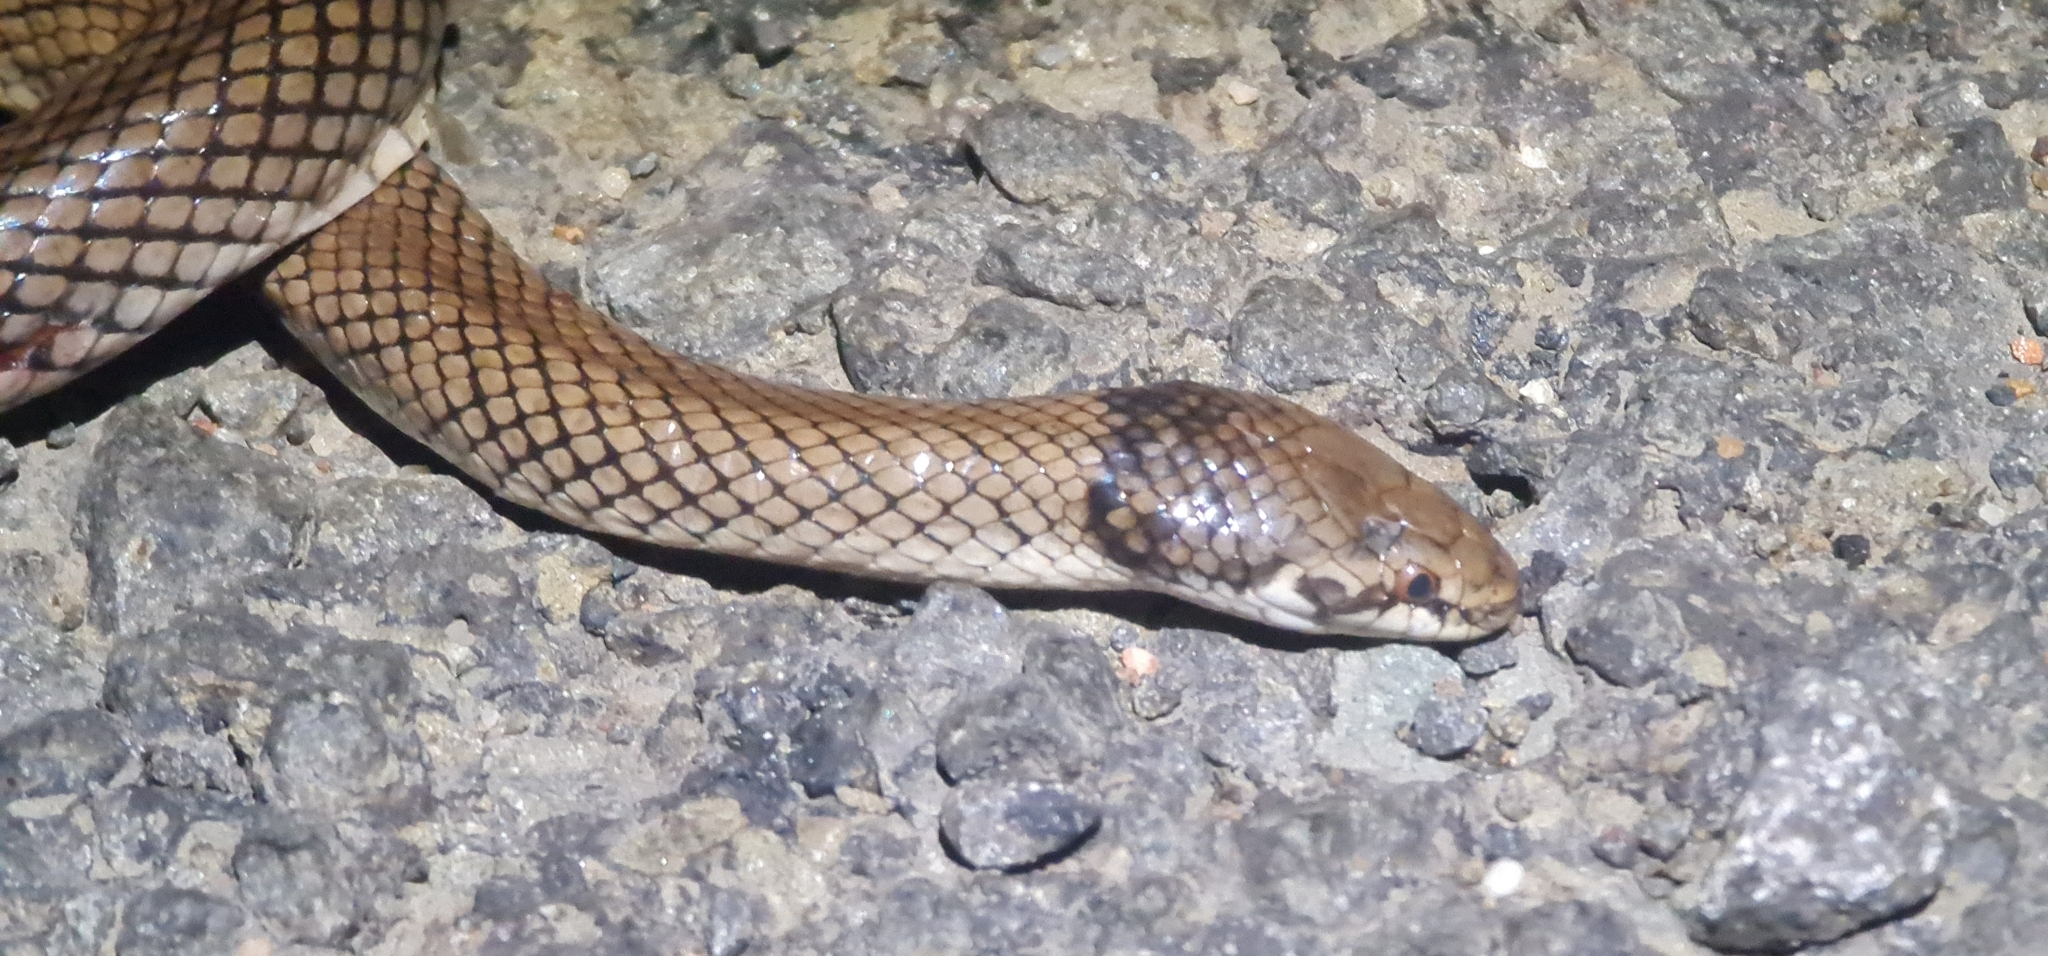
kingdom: Animalia
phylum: Chordata
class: Squamata
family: Elapidae
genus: Suta
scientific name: Suta suta
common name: Curl snake
